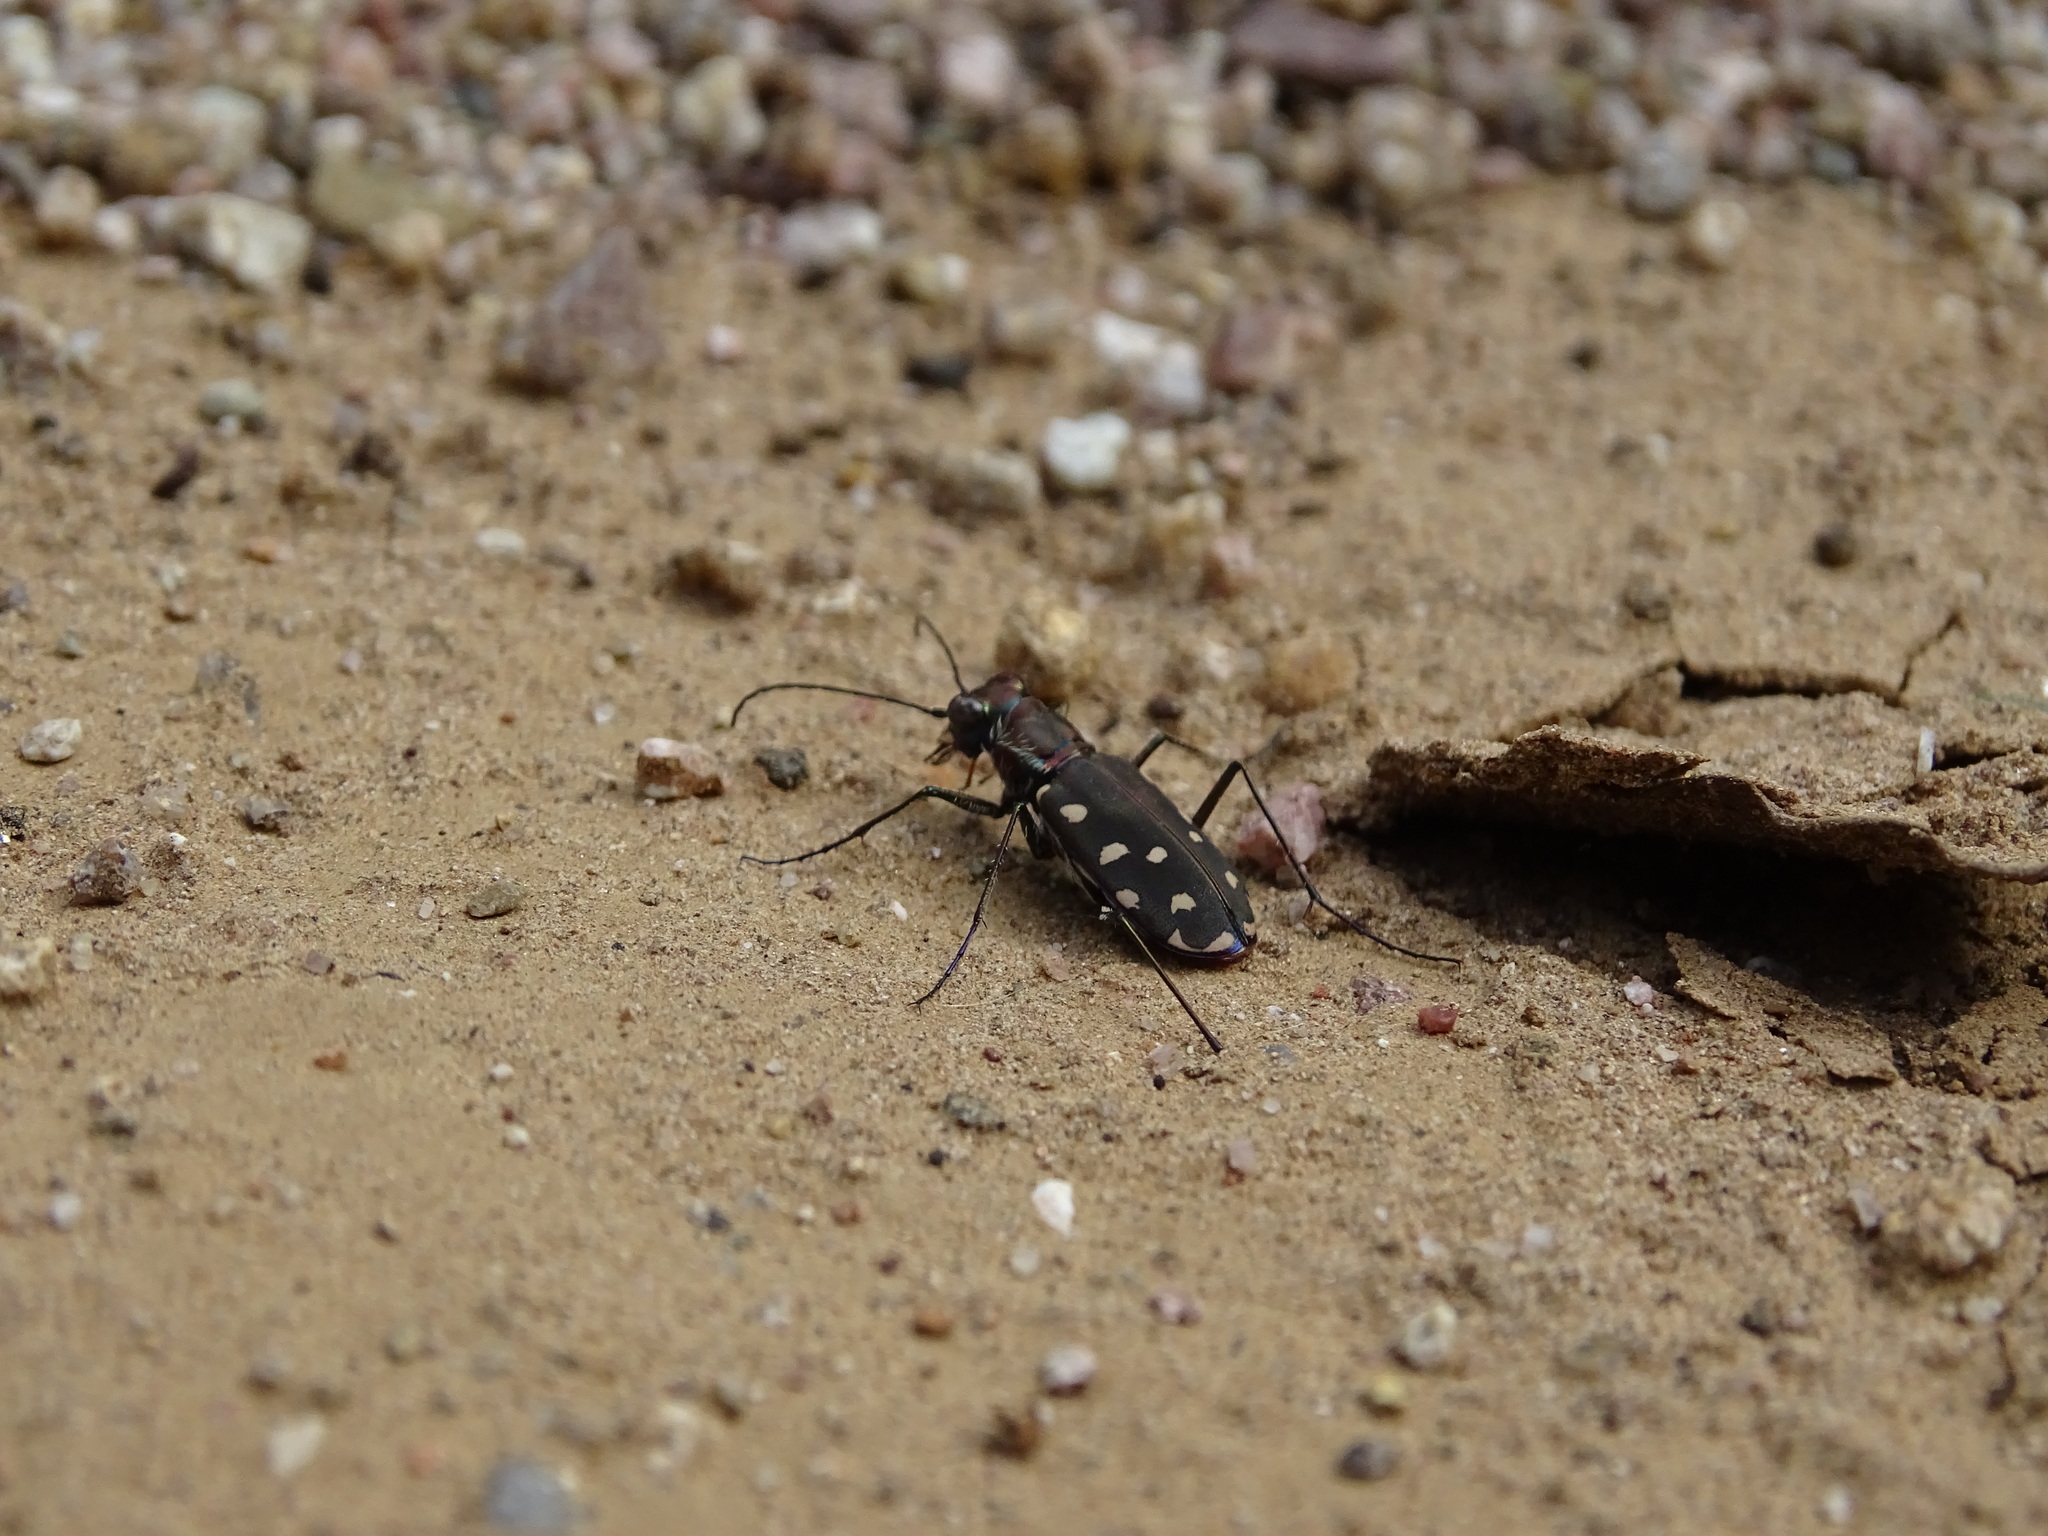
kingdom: Animalia
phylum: Arthropoda
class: Insecta
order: Coleoptera
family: Carabidae
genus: Cicindela
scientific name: Cicindela sedecimpunctata
